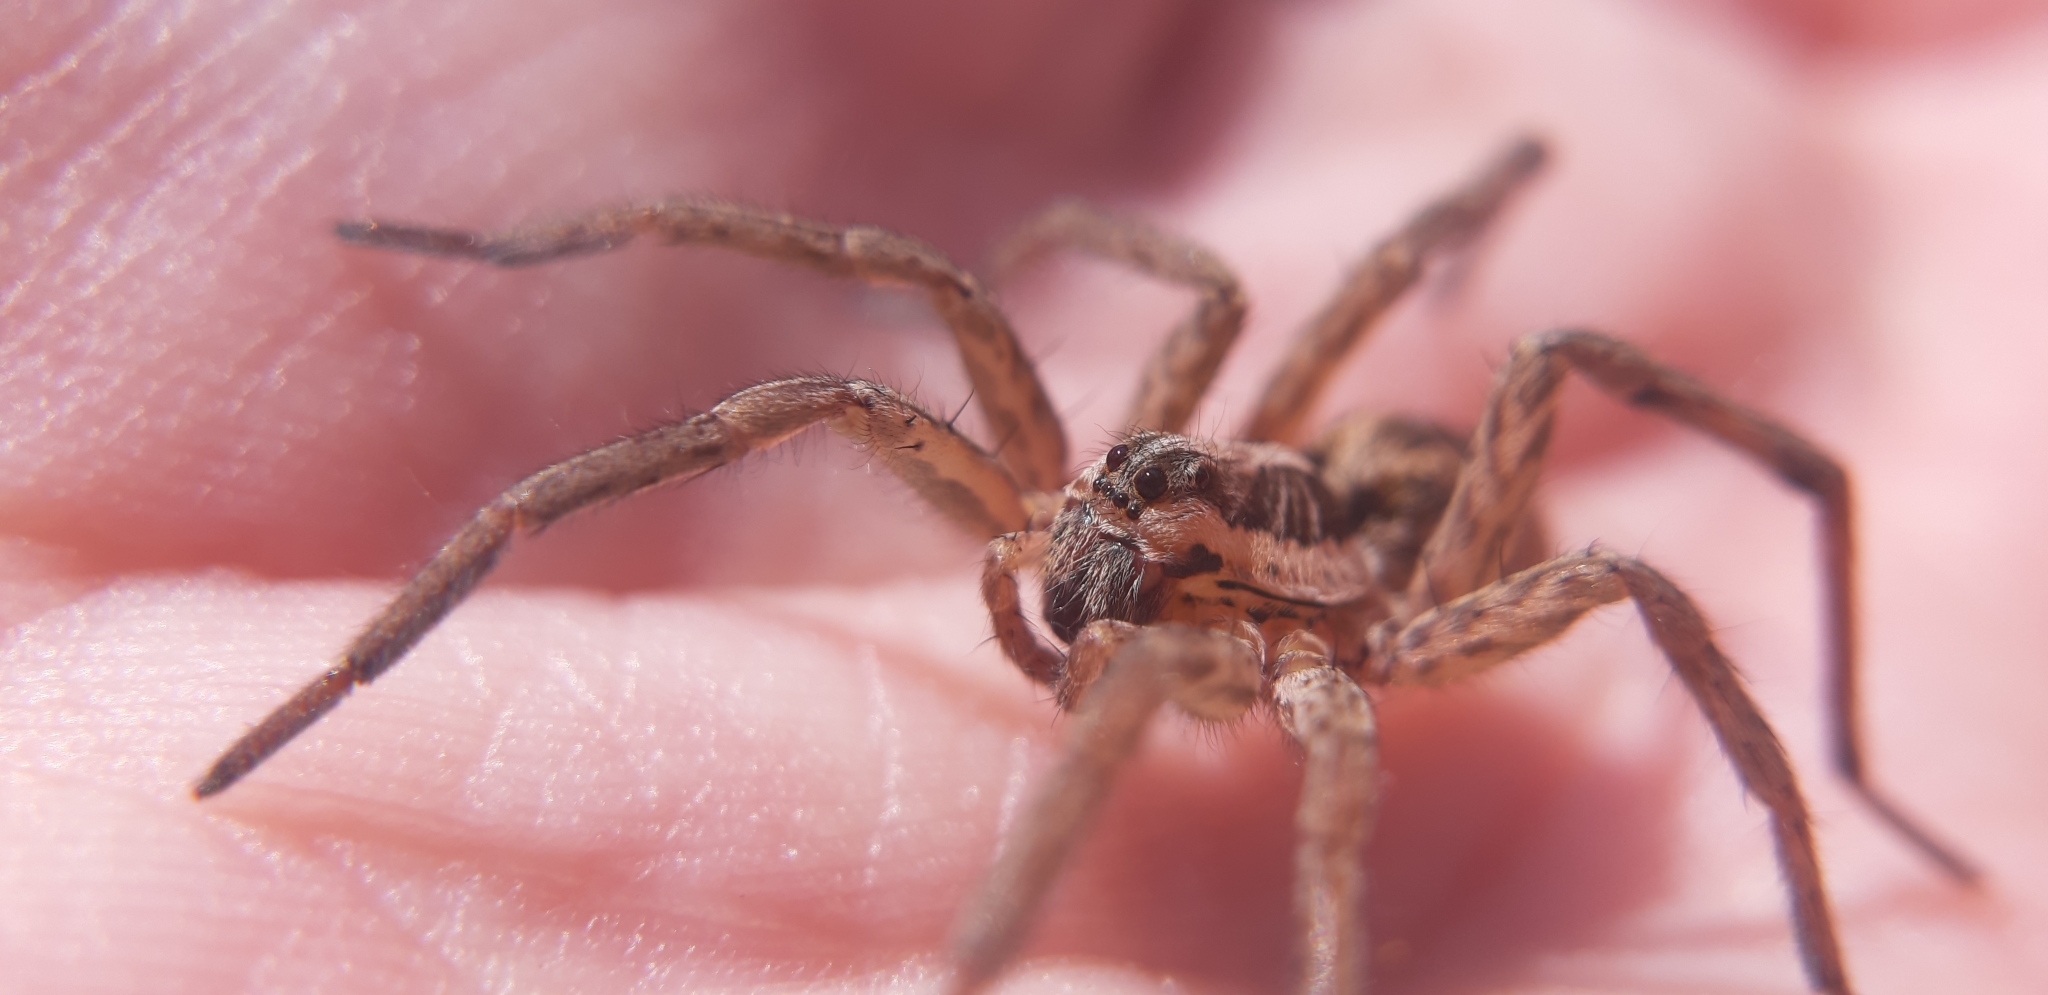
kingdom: Animalia
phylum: Arthropoda
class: Arachnida
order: Araneae
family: Lycosidae
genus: Hogna
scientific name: Hogna radiata
